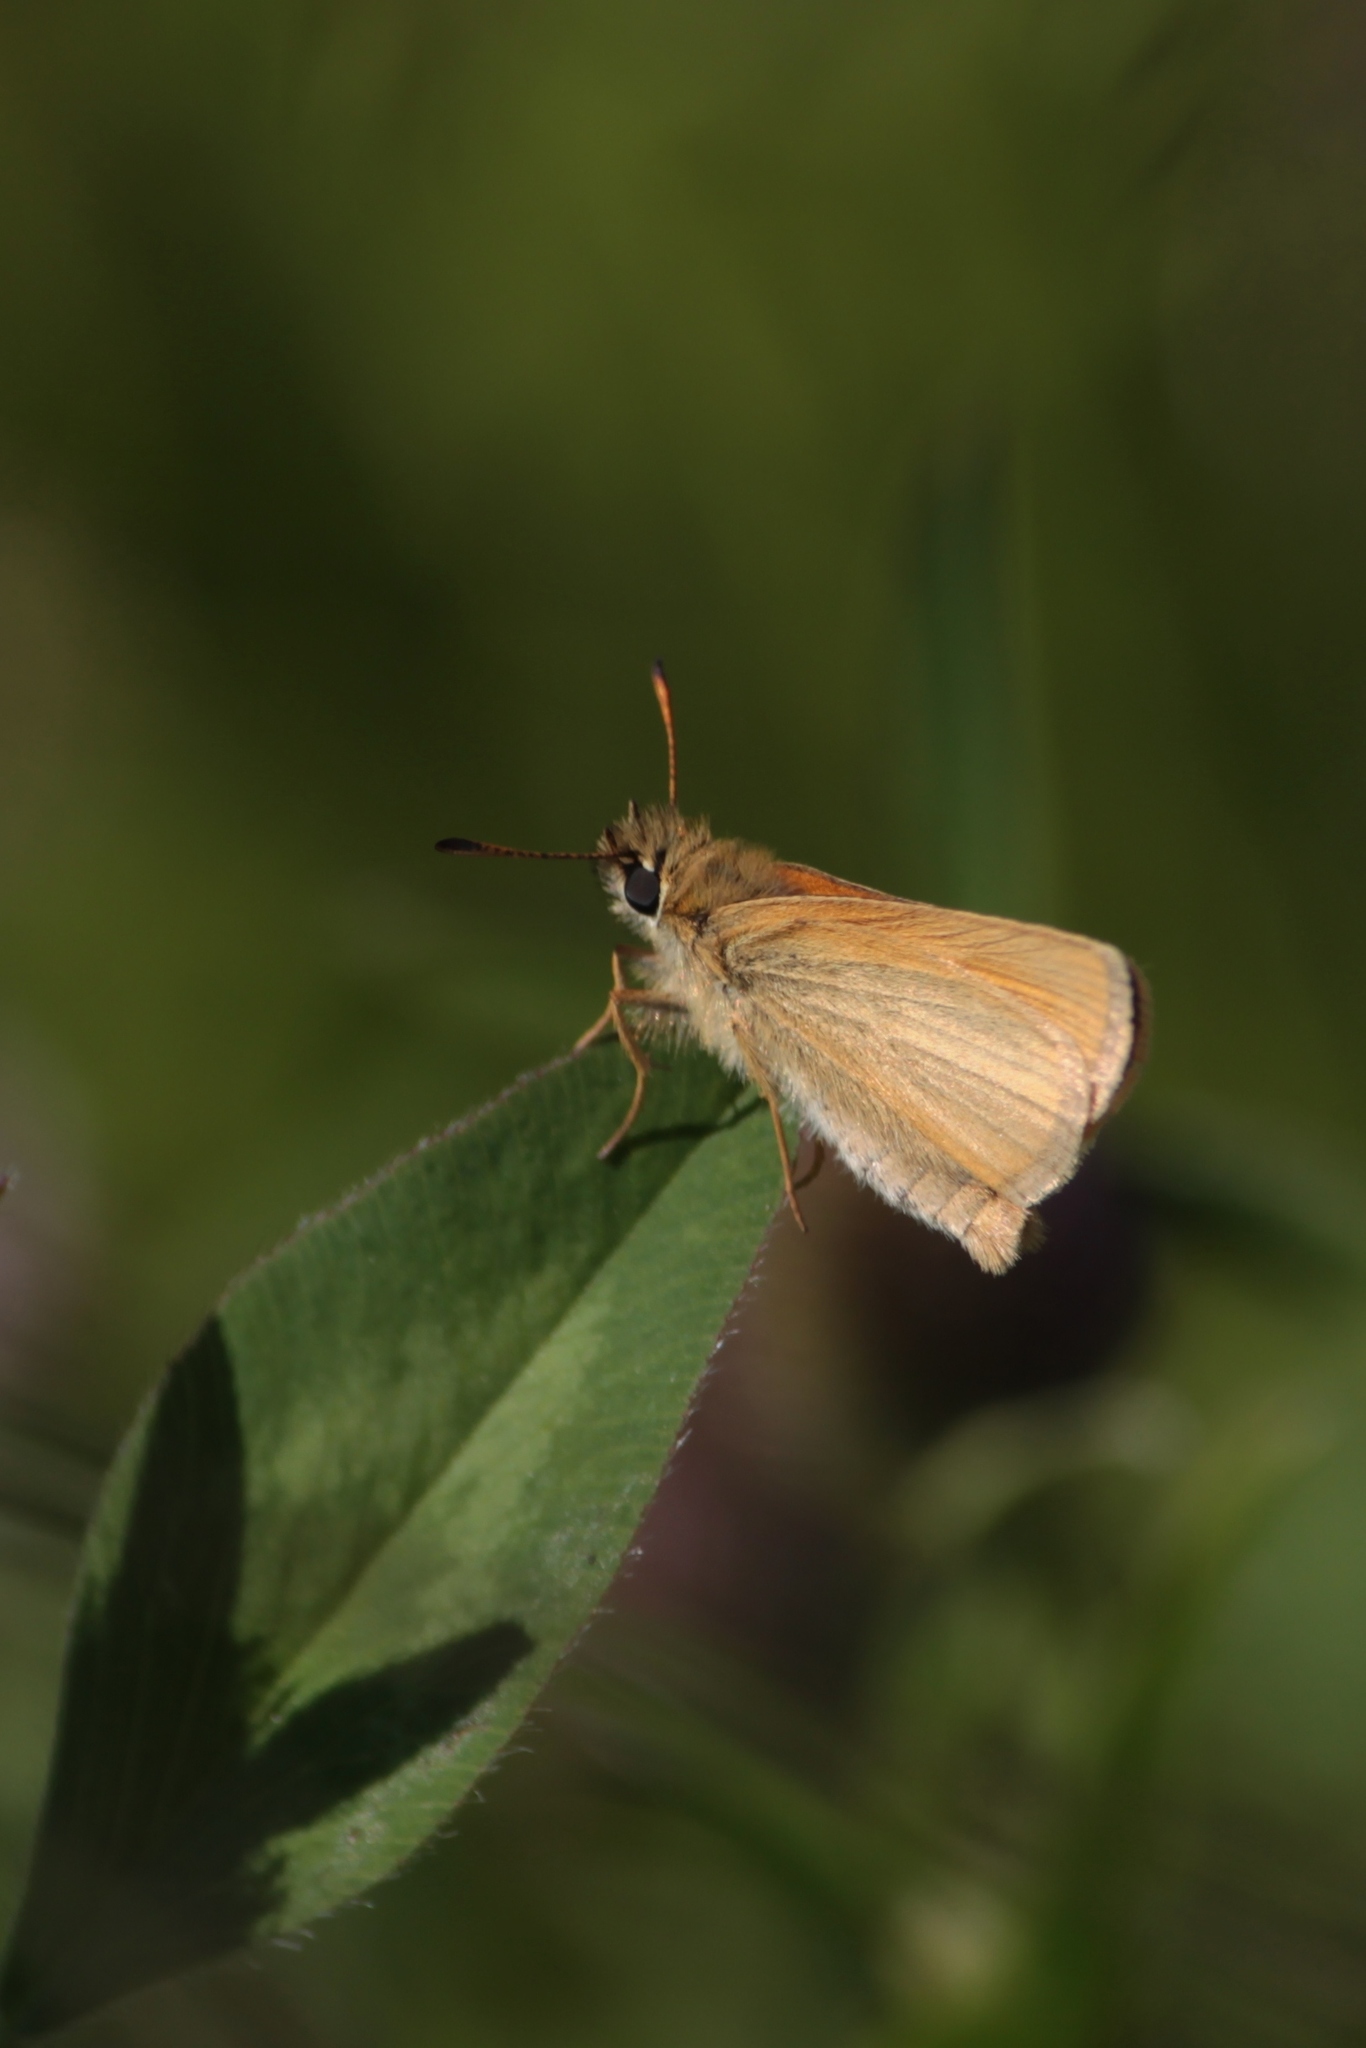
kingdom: Animalia
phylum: Arthropoda
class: Insecta
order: Lepidoptera
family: Hesperiidae
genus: Thymelicus
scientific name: Thymelicus lineola
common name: Essex skipper
